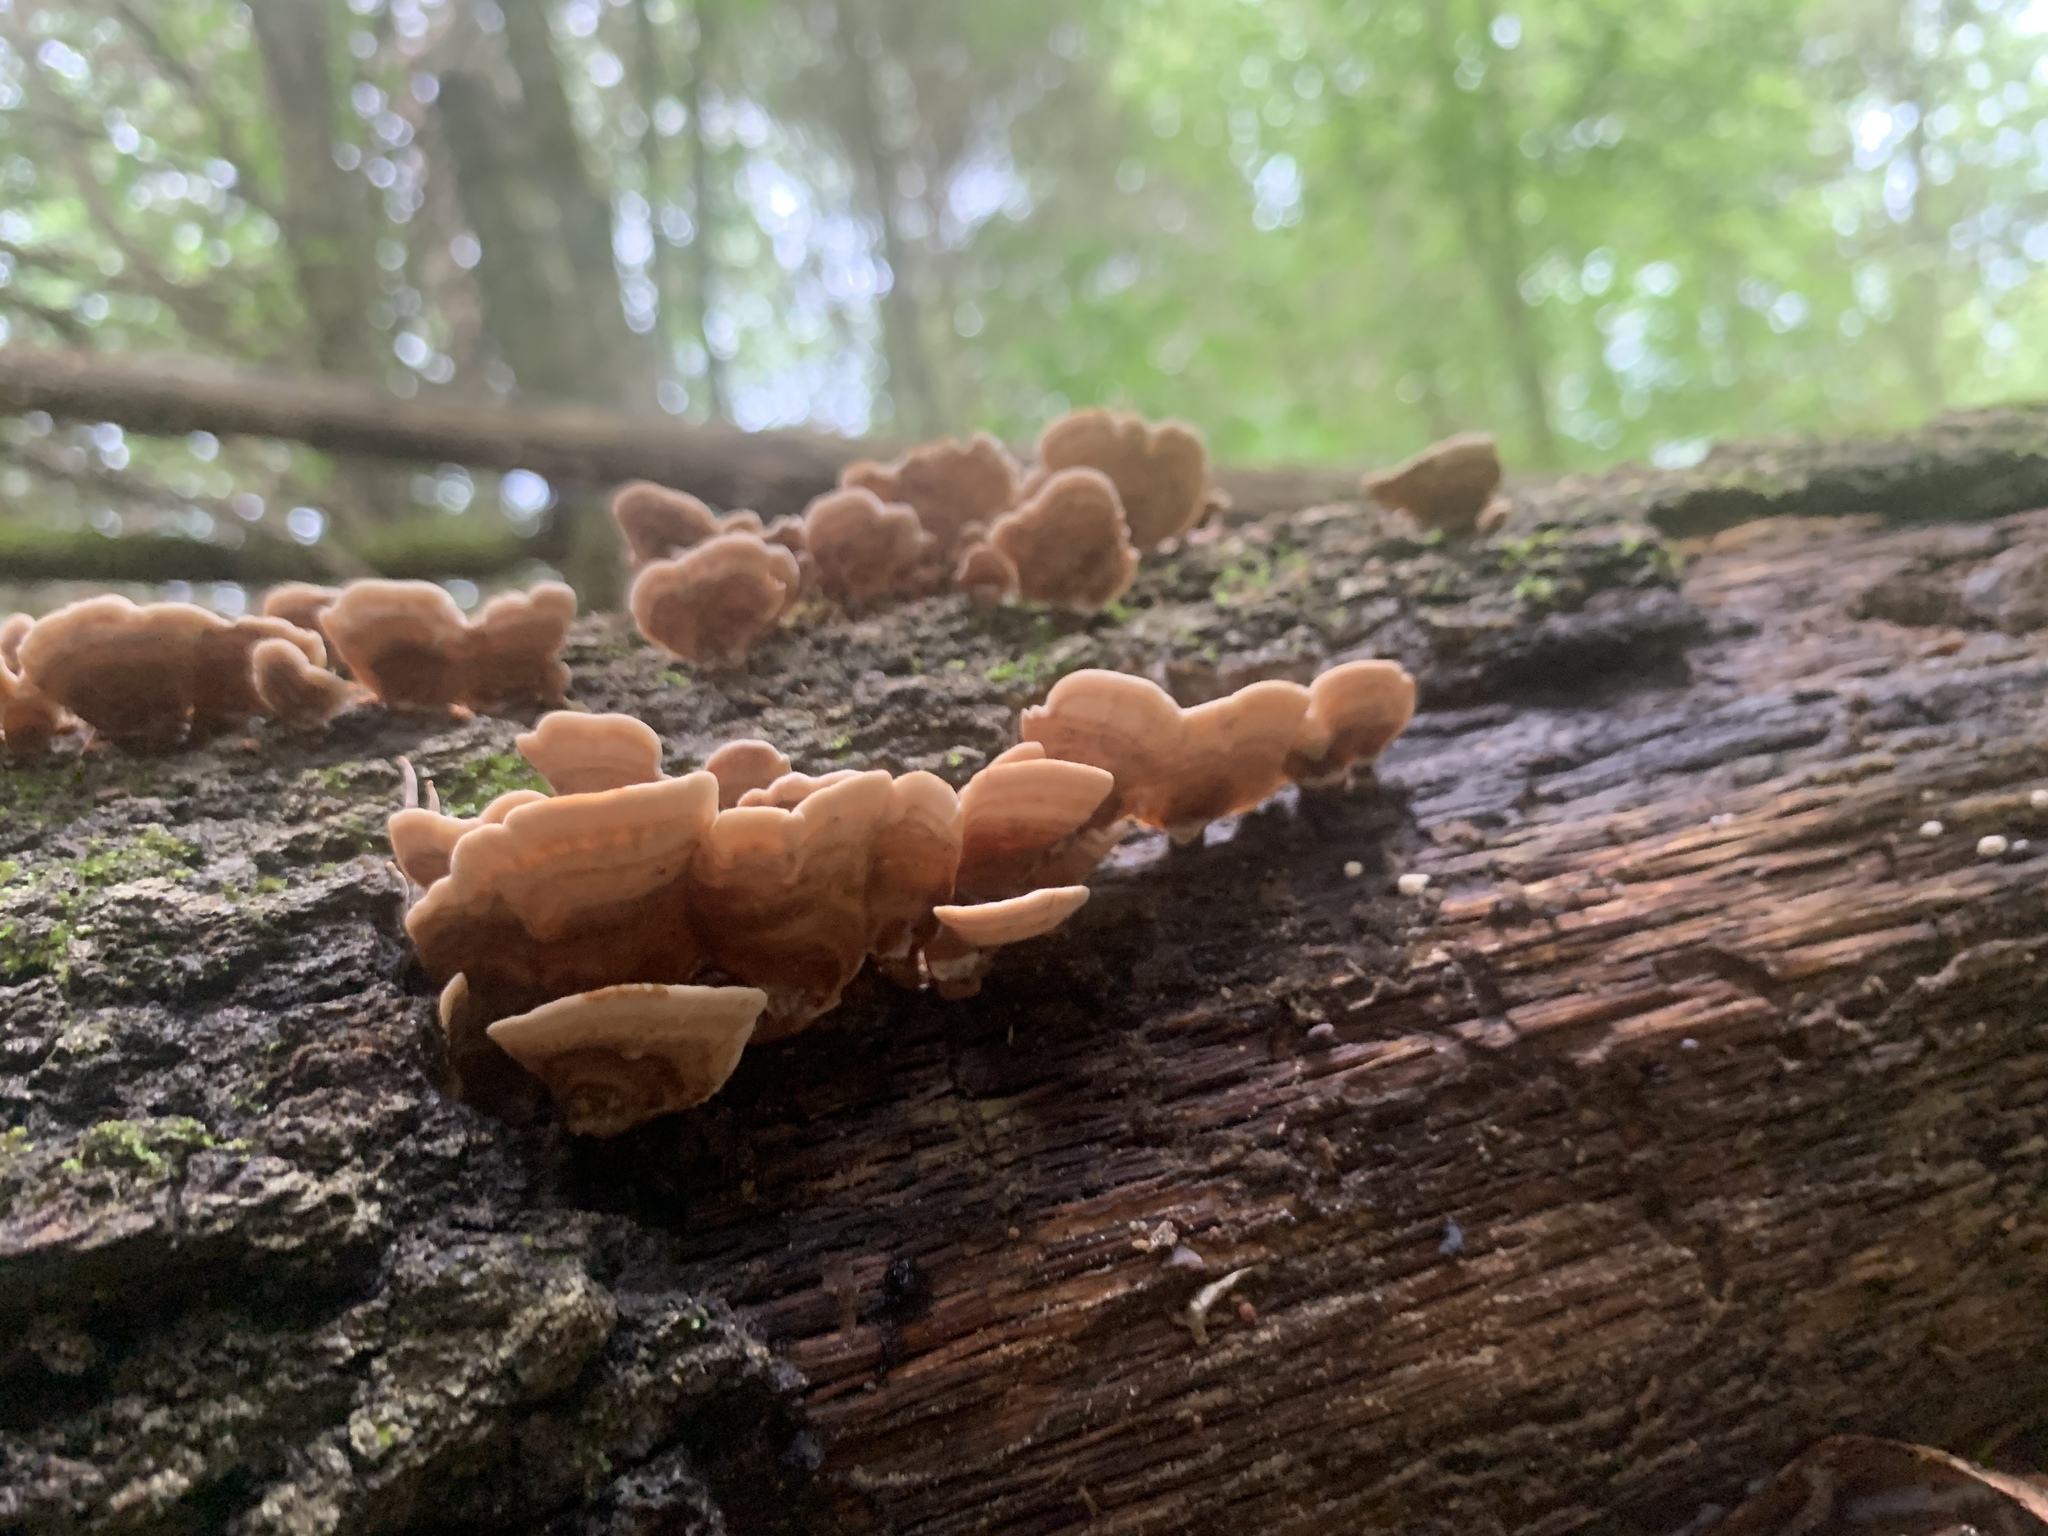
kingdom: Fungi
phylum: Basidiomycota
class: Agaricomycetes
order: Russulales
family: Stereaceae
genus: Stereum
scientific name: Stereum ostrea
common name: False turkeytail
